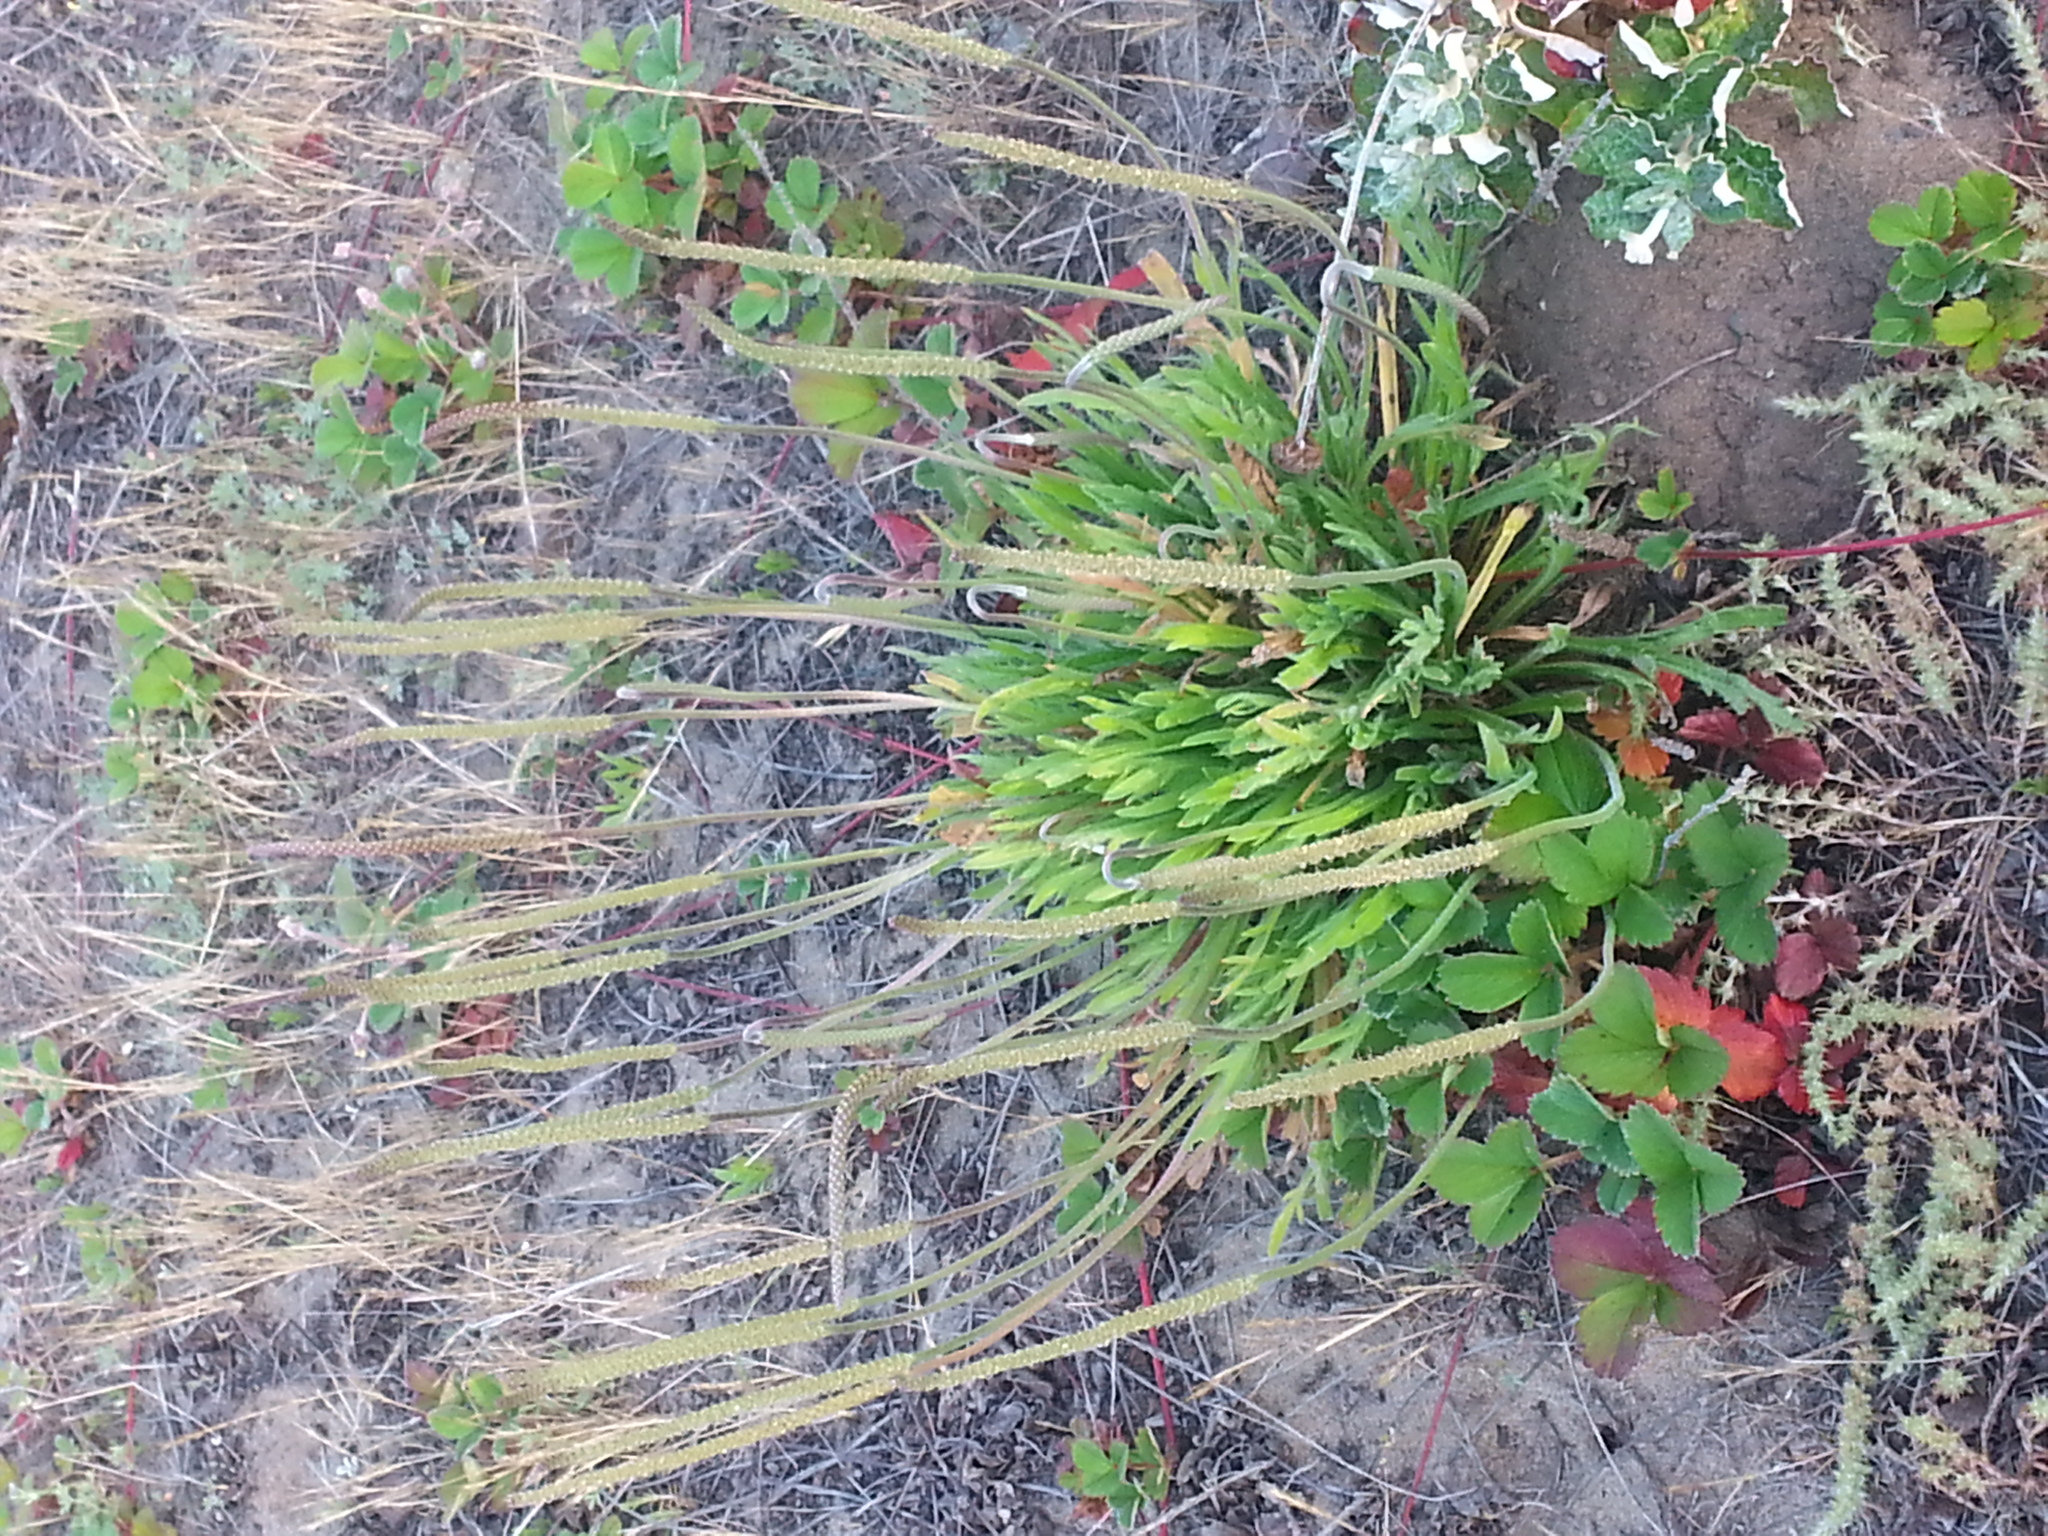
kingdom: Plantae
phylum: Tracheophyta
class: Magnoliopsida
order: Lamiales
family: Plantaginaceae
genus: Plantago
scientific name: Plantago coronopus
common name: Buck's-horn plantain
